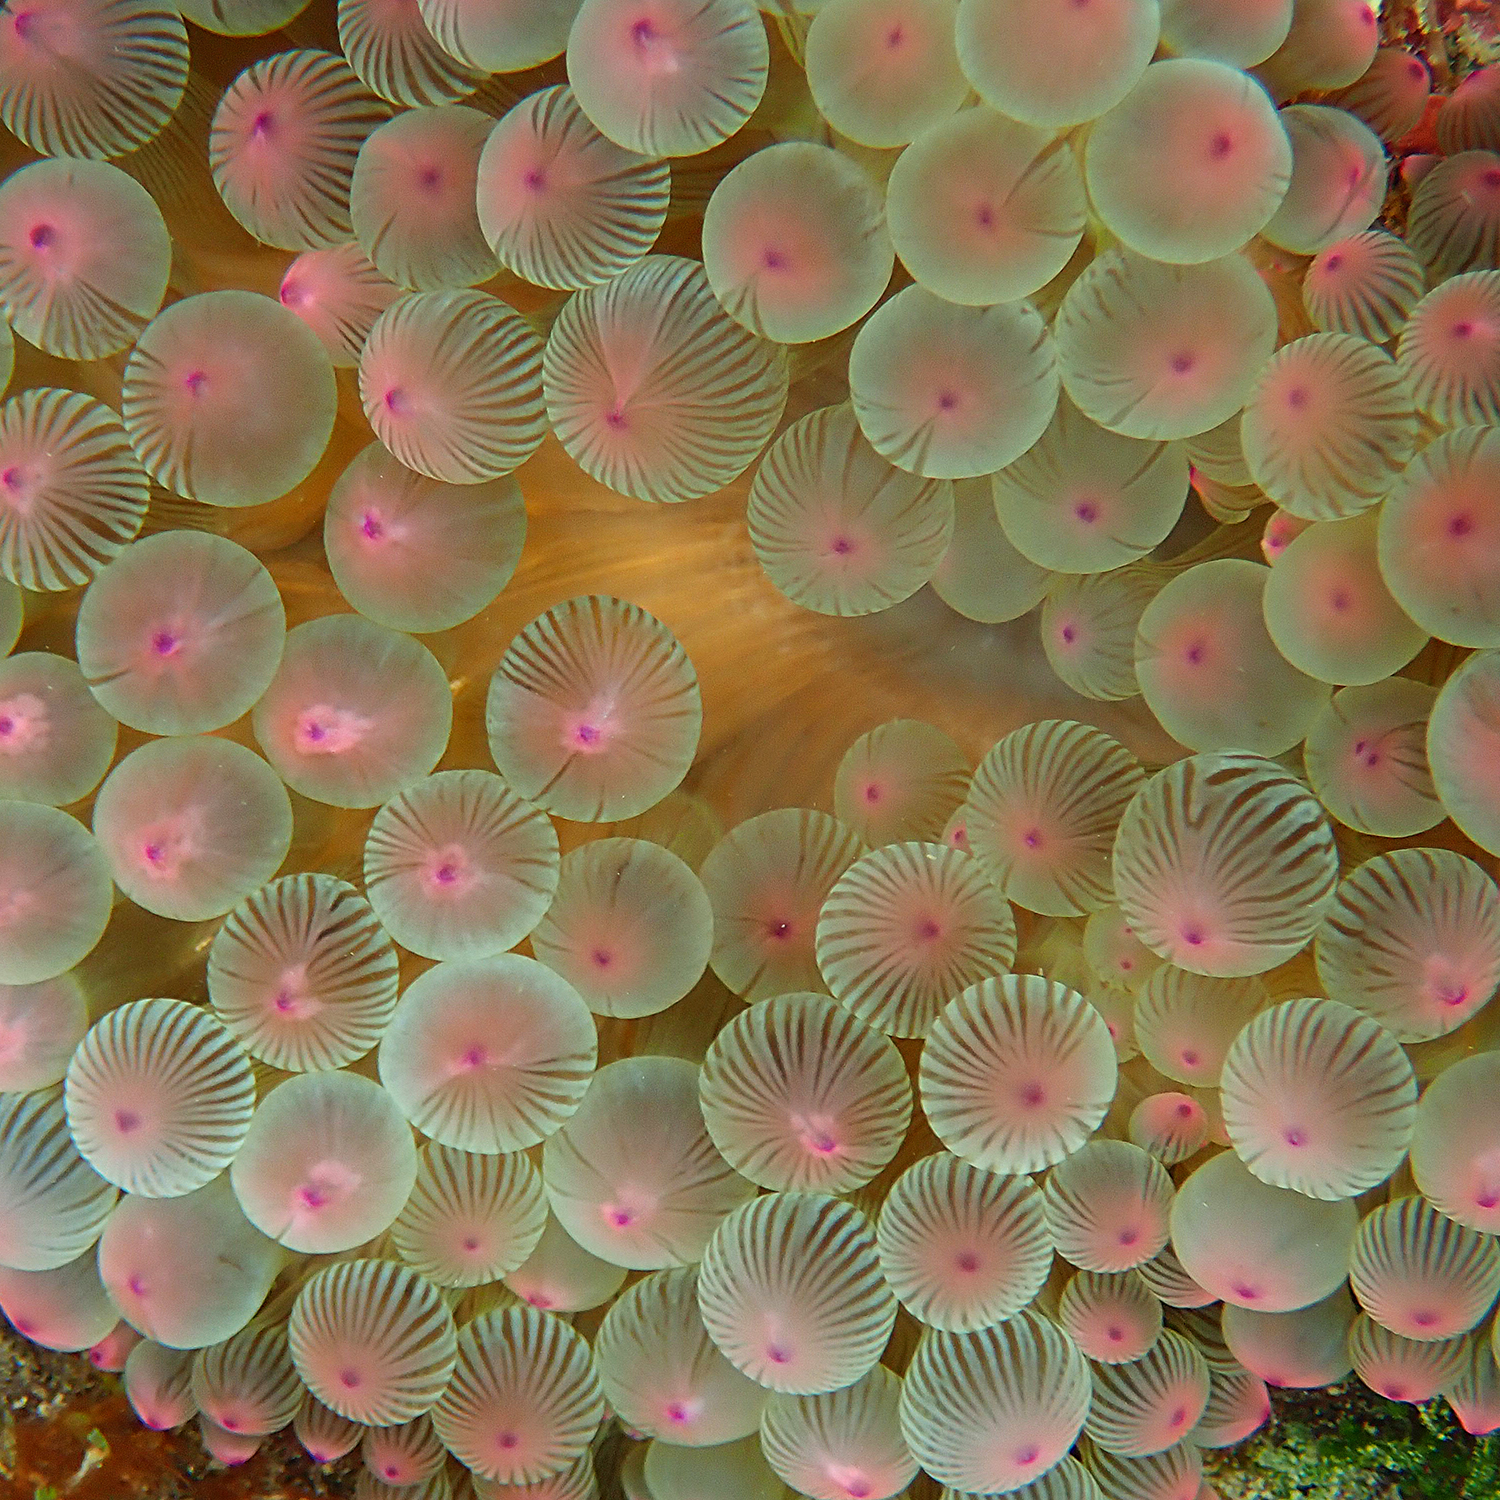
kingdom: Animalia
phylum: Cnidaria
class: Anthozoa
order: Actiniaria
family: Actiniidae
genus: Entacmaea
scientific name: Entacmaea quadricolor
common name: Bulb tentacle sea anemone
